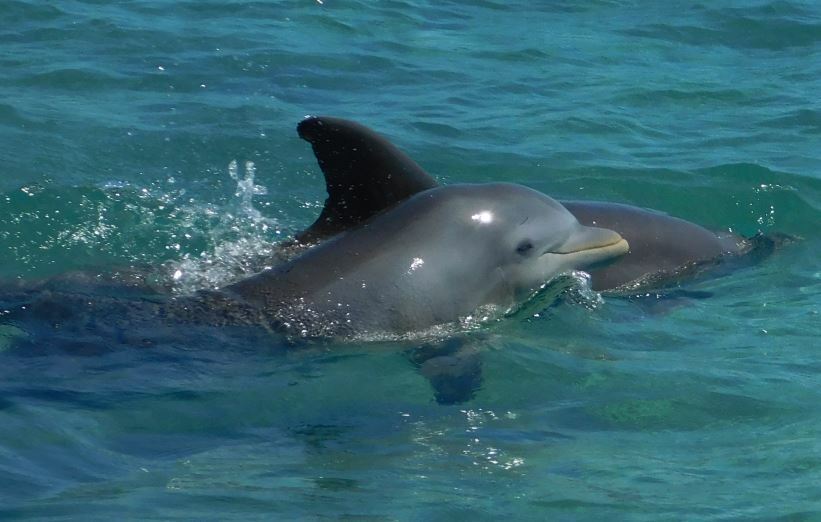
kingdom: Animalia
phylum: Chordata
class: Mammalia
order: Cetacea
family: Delphinidae
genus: Tursiops
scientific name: Tursiops truncatus
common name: Bottlenose dolphin
